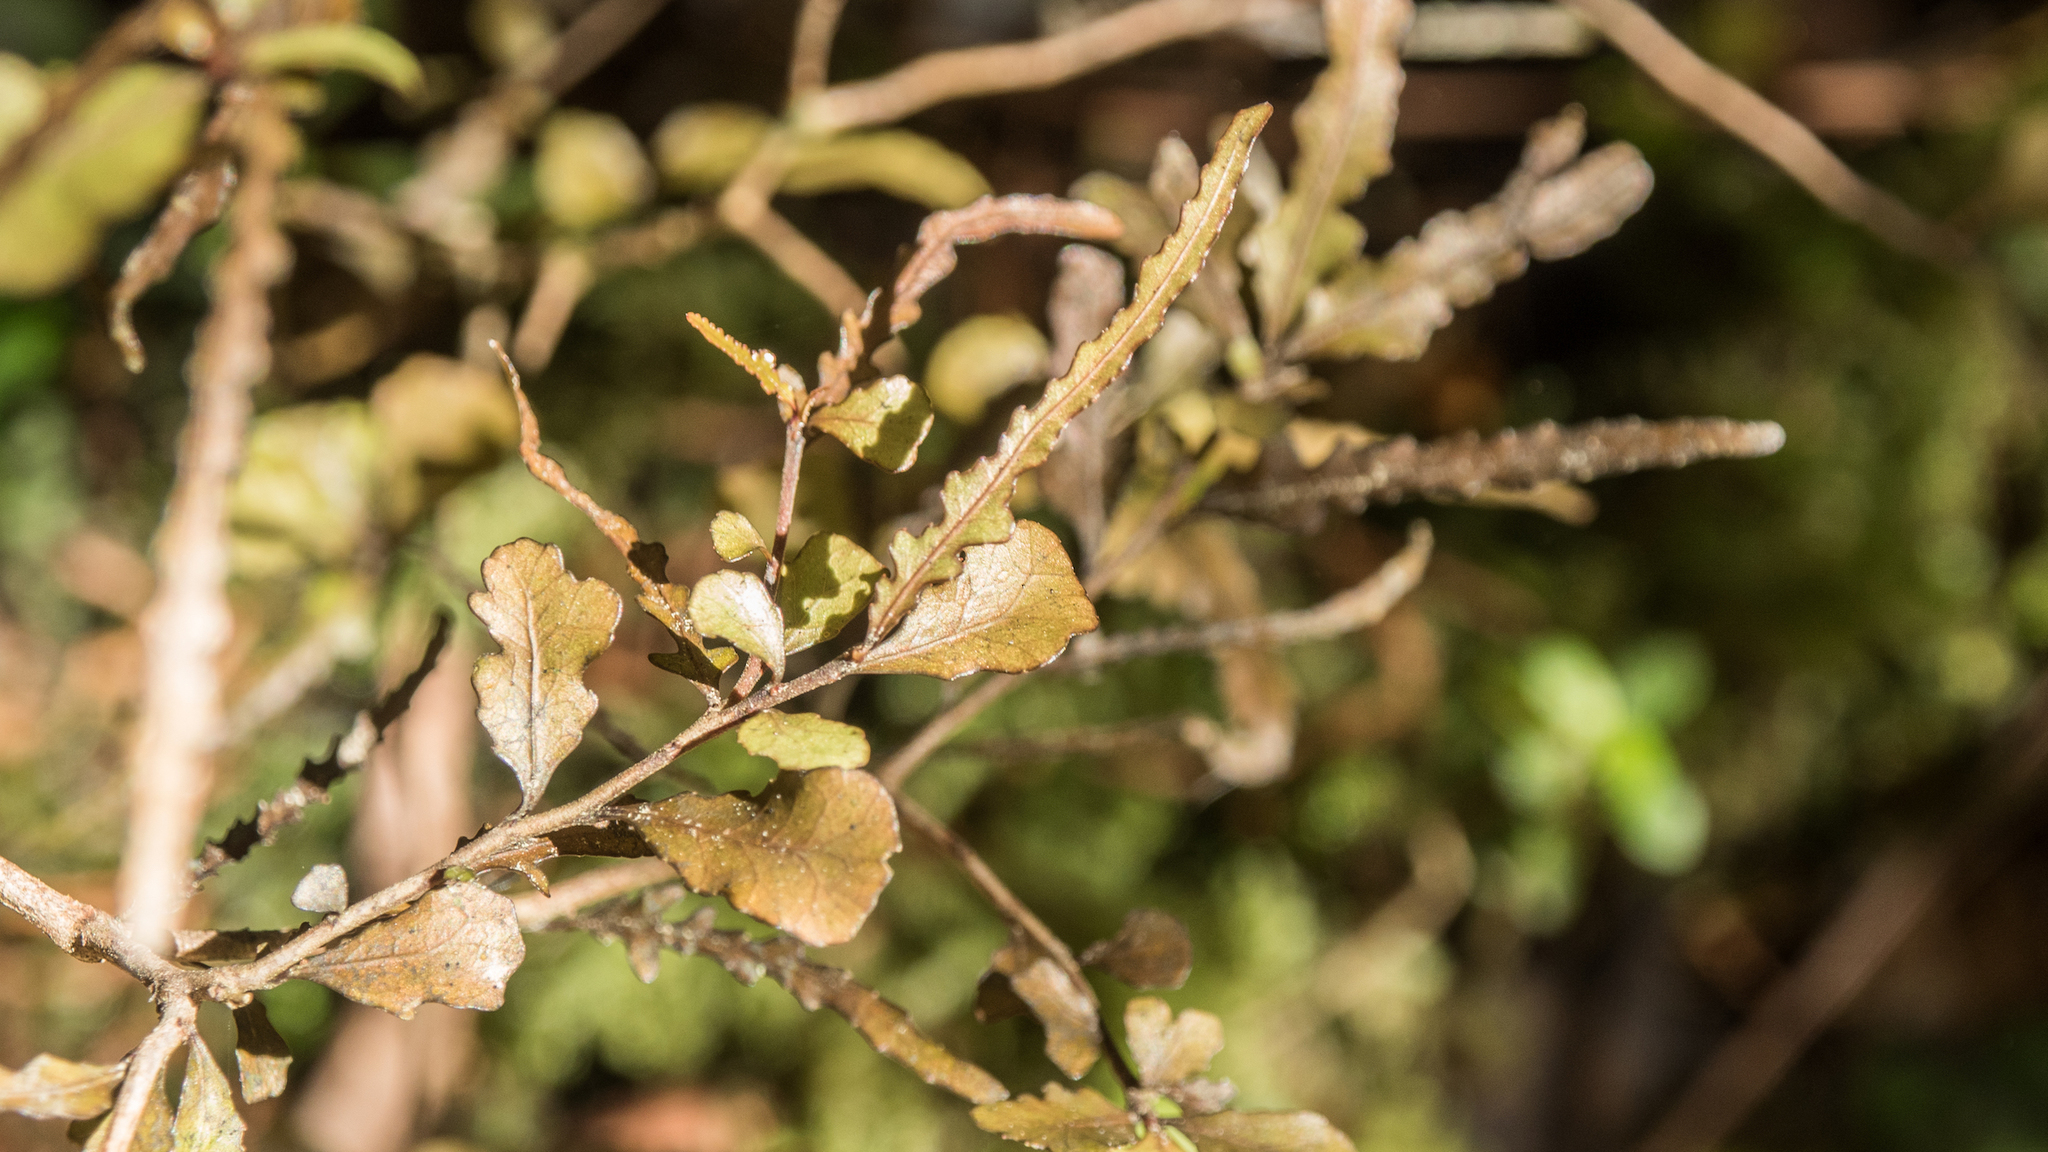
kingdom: Plantae
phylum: Tracheophyta
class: Magnoliopsida
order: Oxalidales
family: Elaeocarpaceae
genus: Elaeocarpus
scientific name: Elaeocarpus hookerianus
